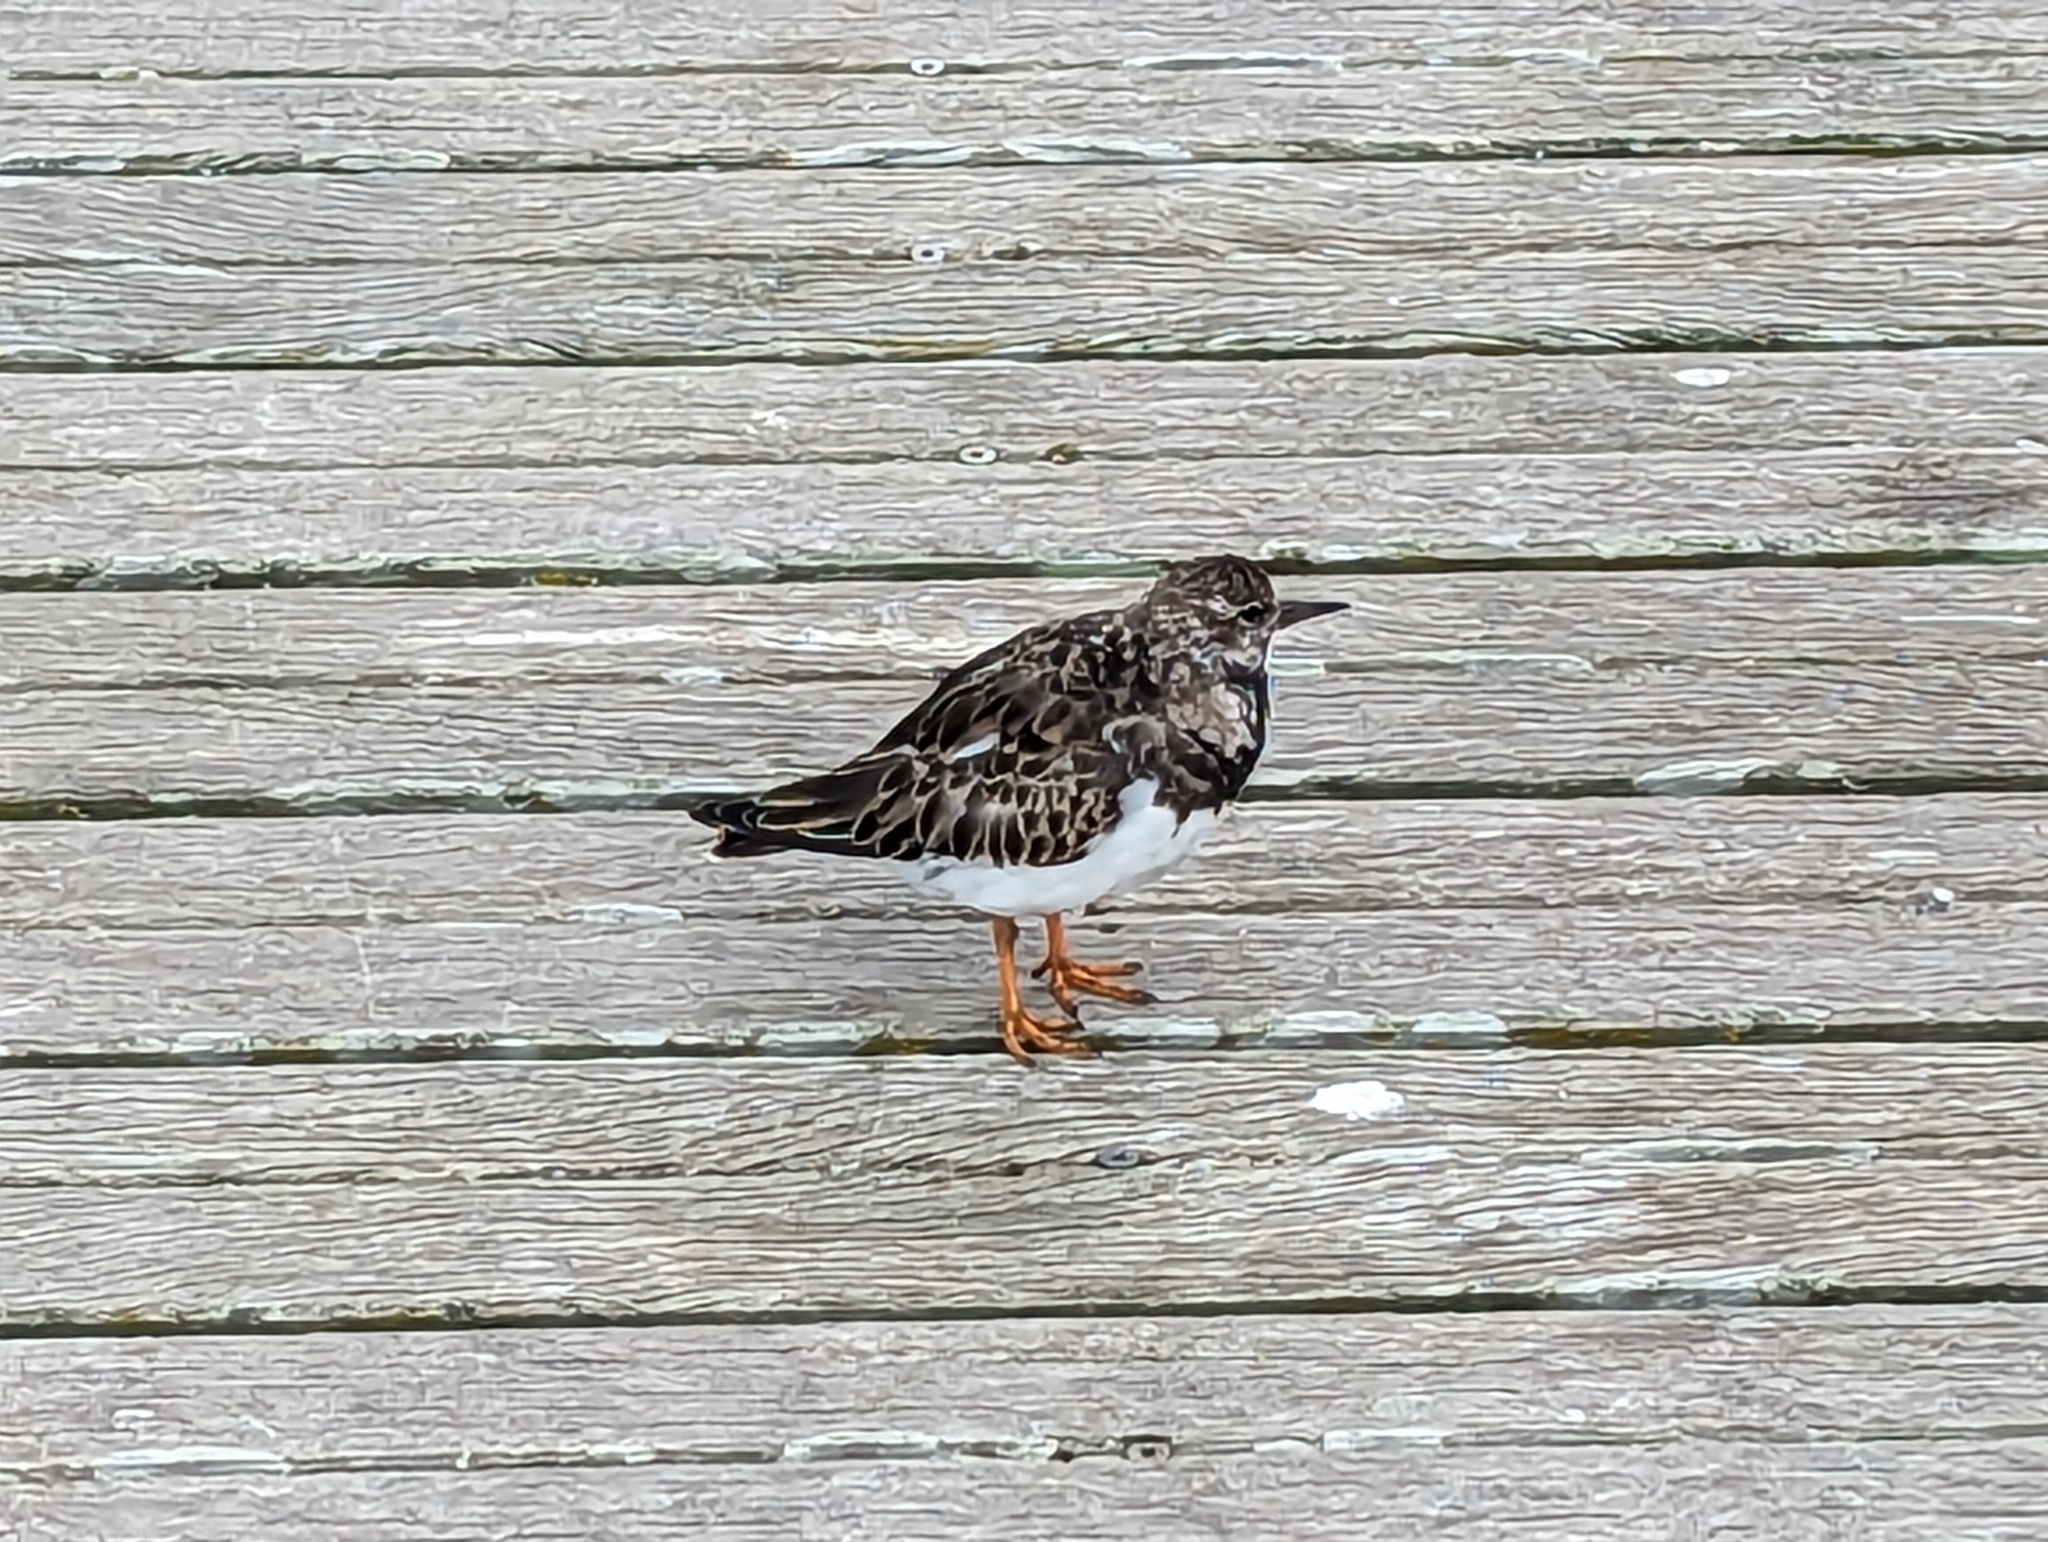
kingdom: Animalia
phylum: Chordata
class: Aves
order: Charadriiformes
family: Scolopacidae
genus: Arenaria
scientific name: Arenaria interpres
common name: Ruddy turnstone
